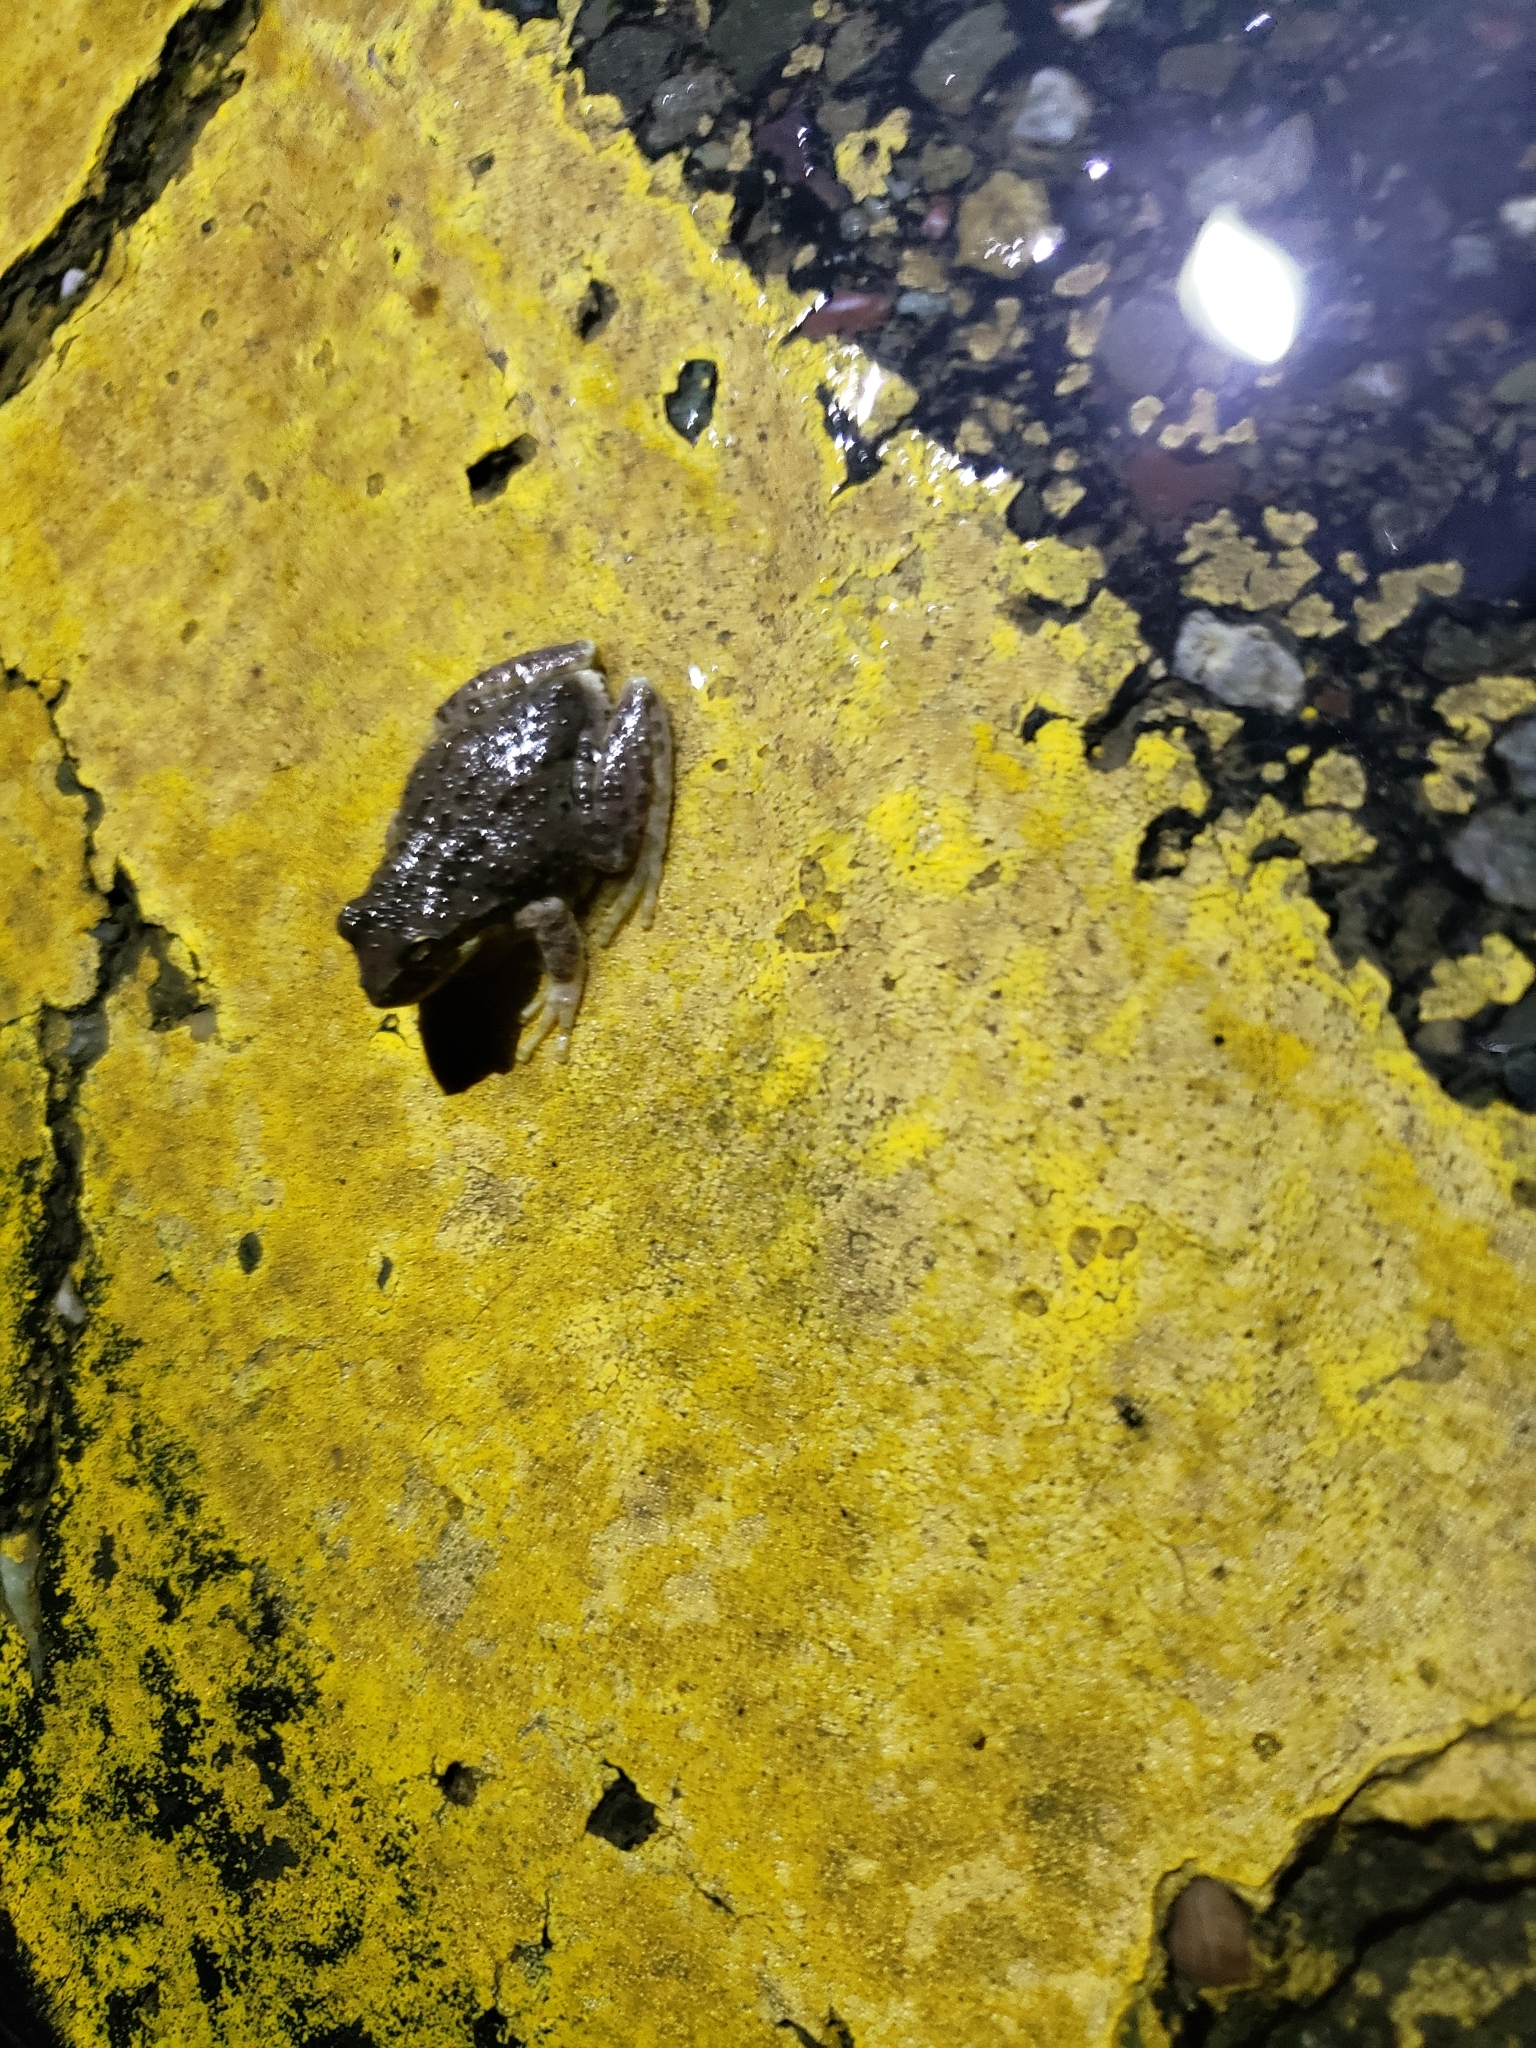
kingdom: Animalia
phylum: Chordata
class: Amphibia
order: Anura
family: Hylidae
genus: Pseudacris
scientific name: Pseudacris regilla
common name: Pacific chorus frog
